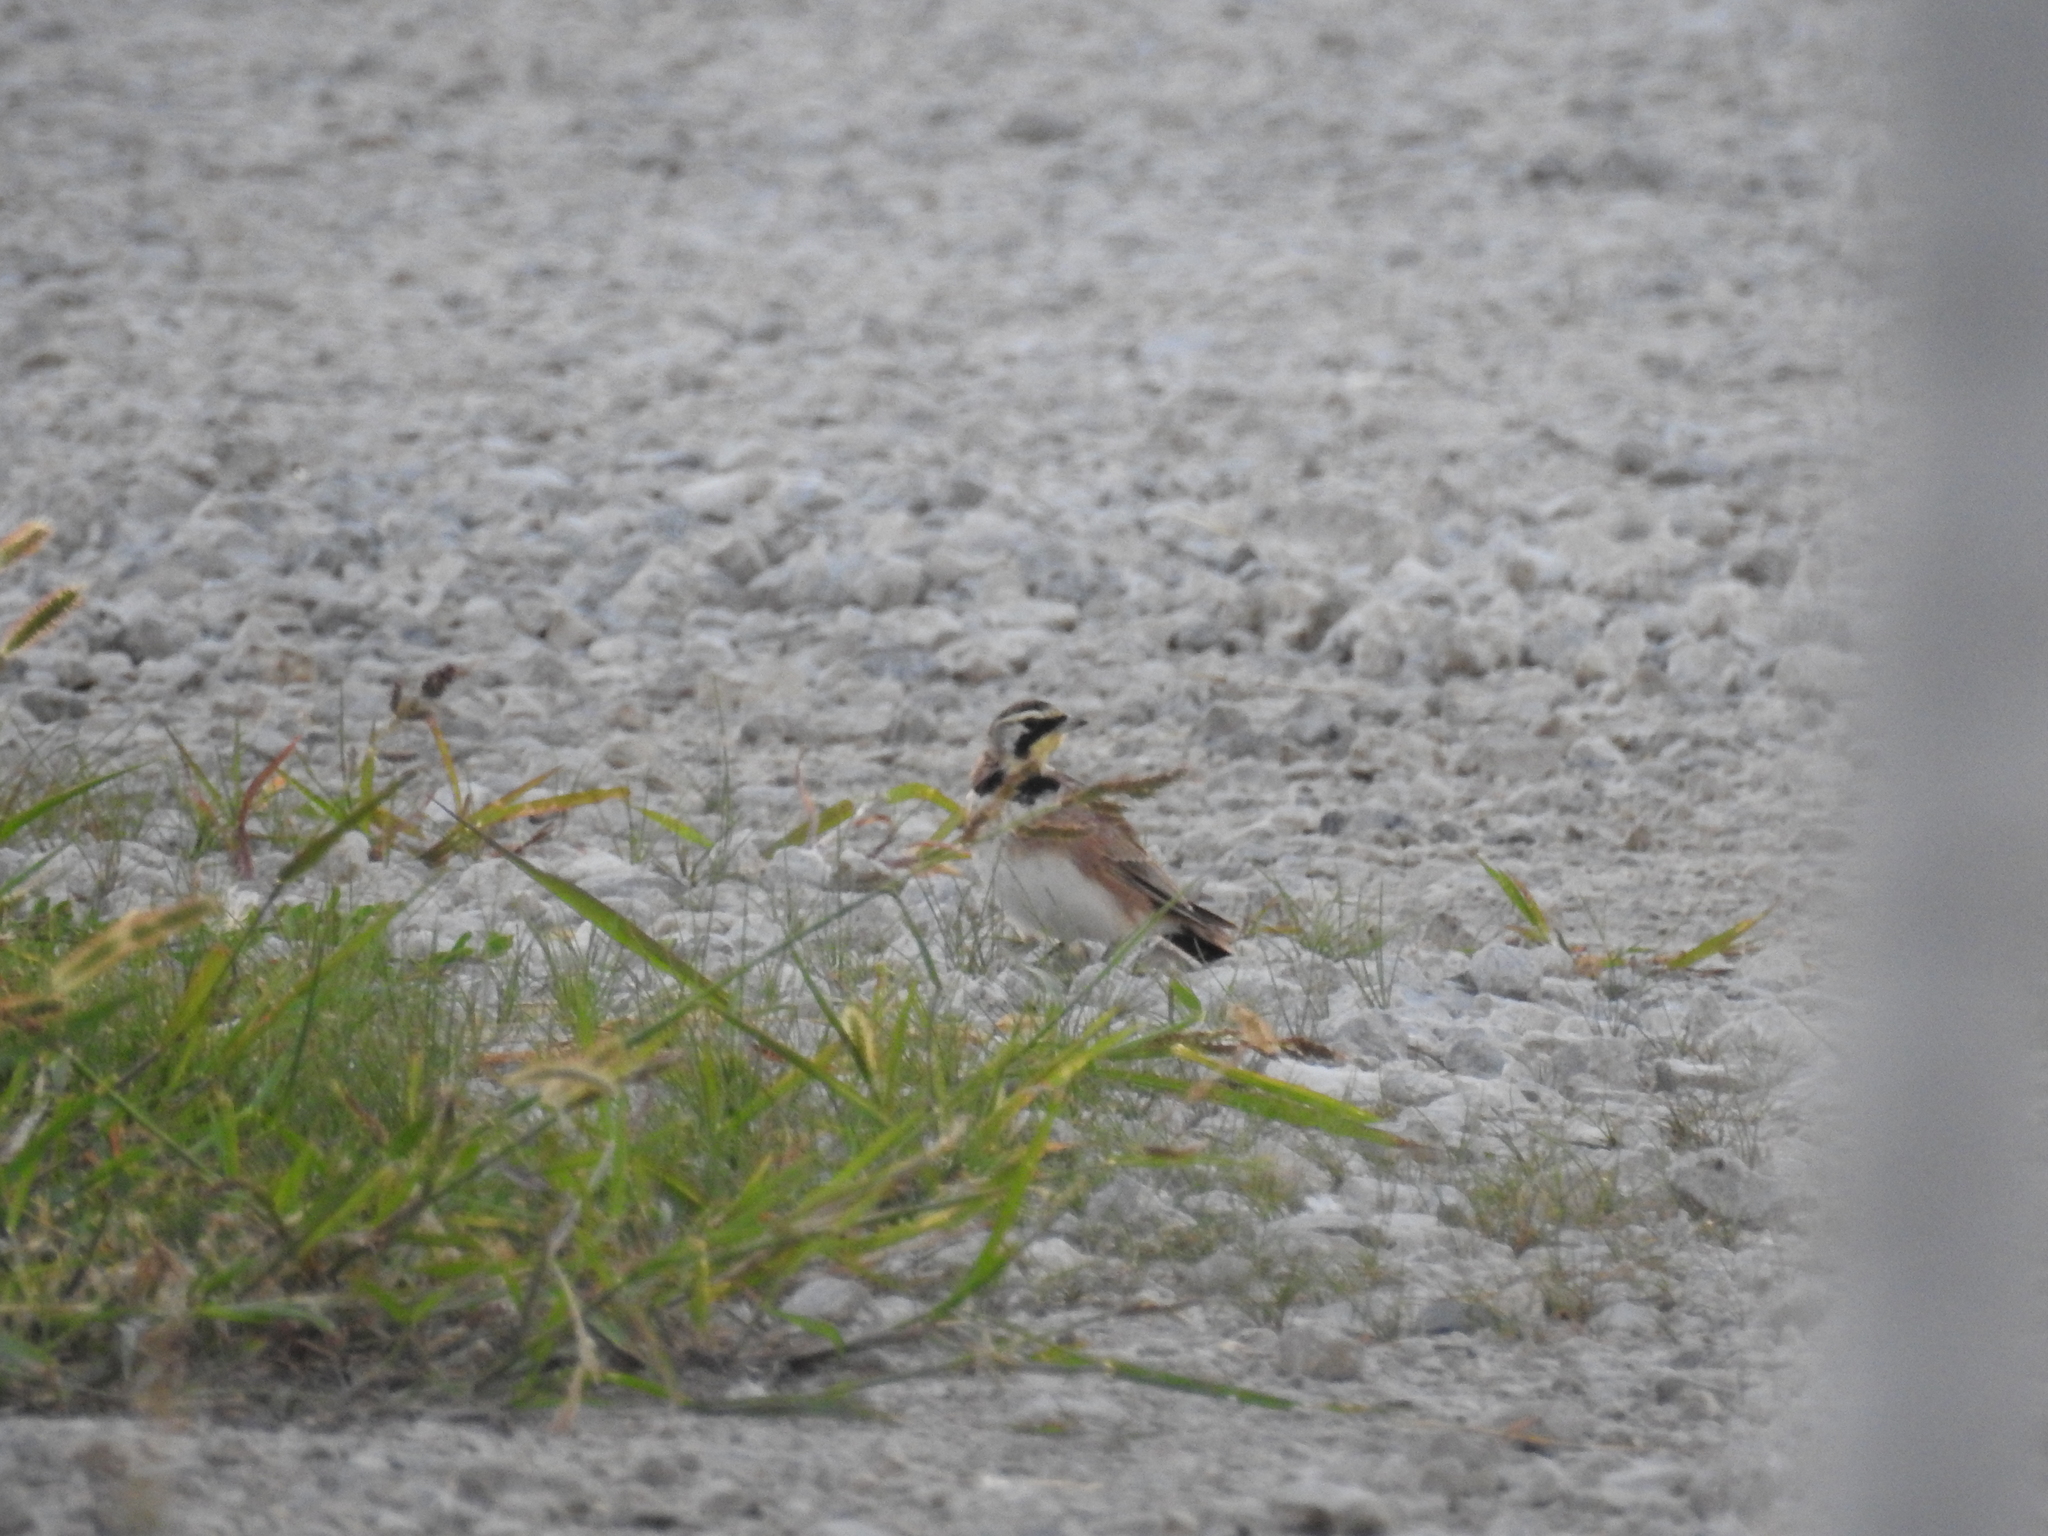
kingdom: Animalia
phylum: Chordata
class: Aves
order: Passeriformes
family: Alaudidae
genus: Eremophila
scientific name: Eremophila alpestris
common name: Horned lark
